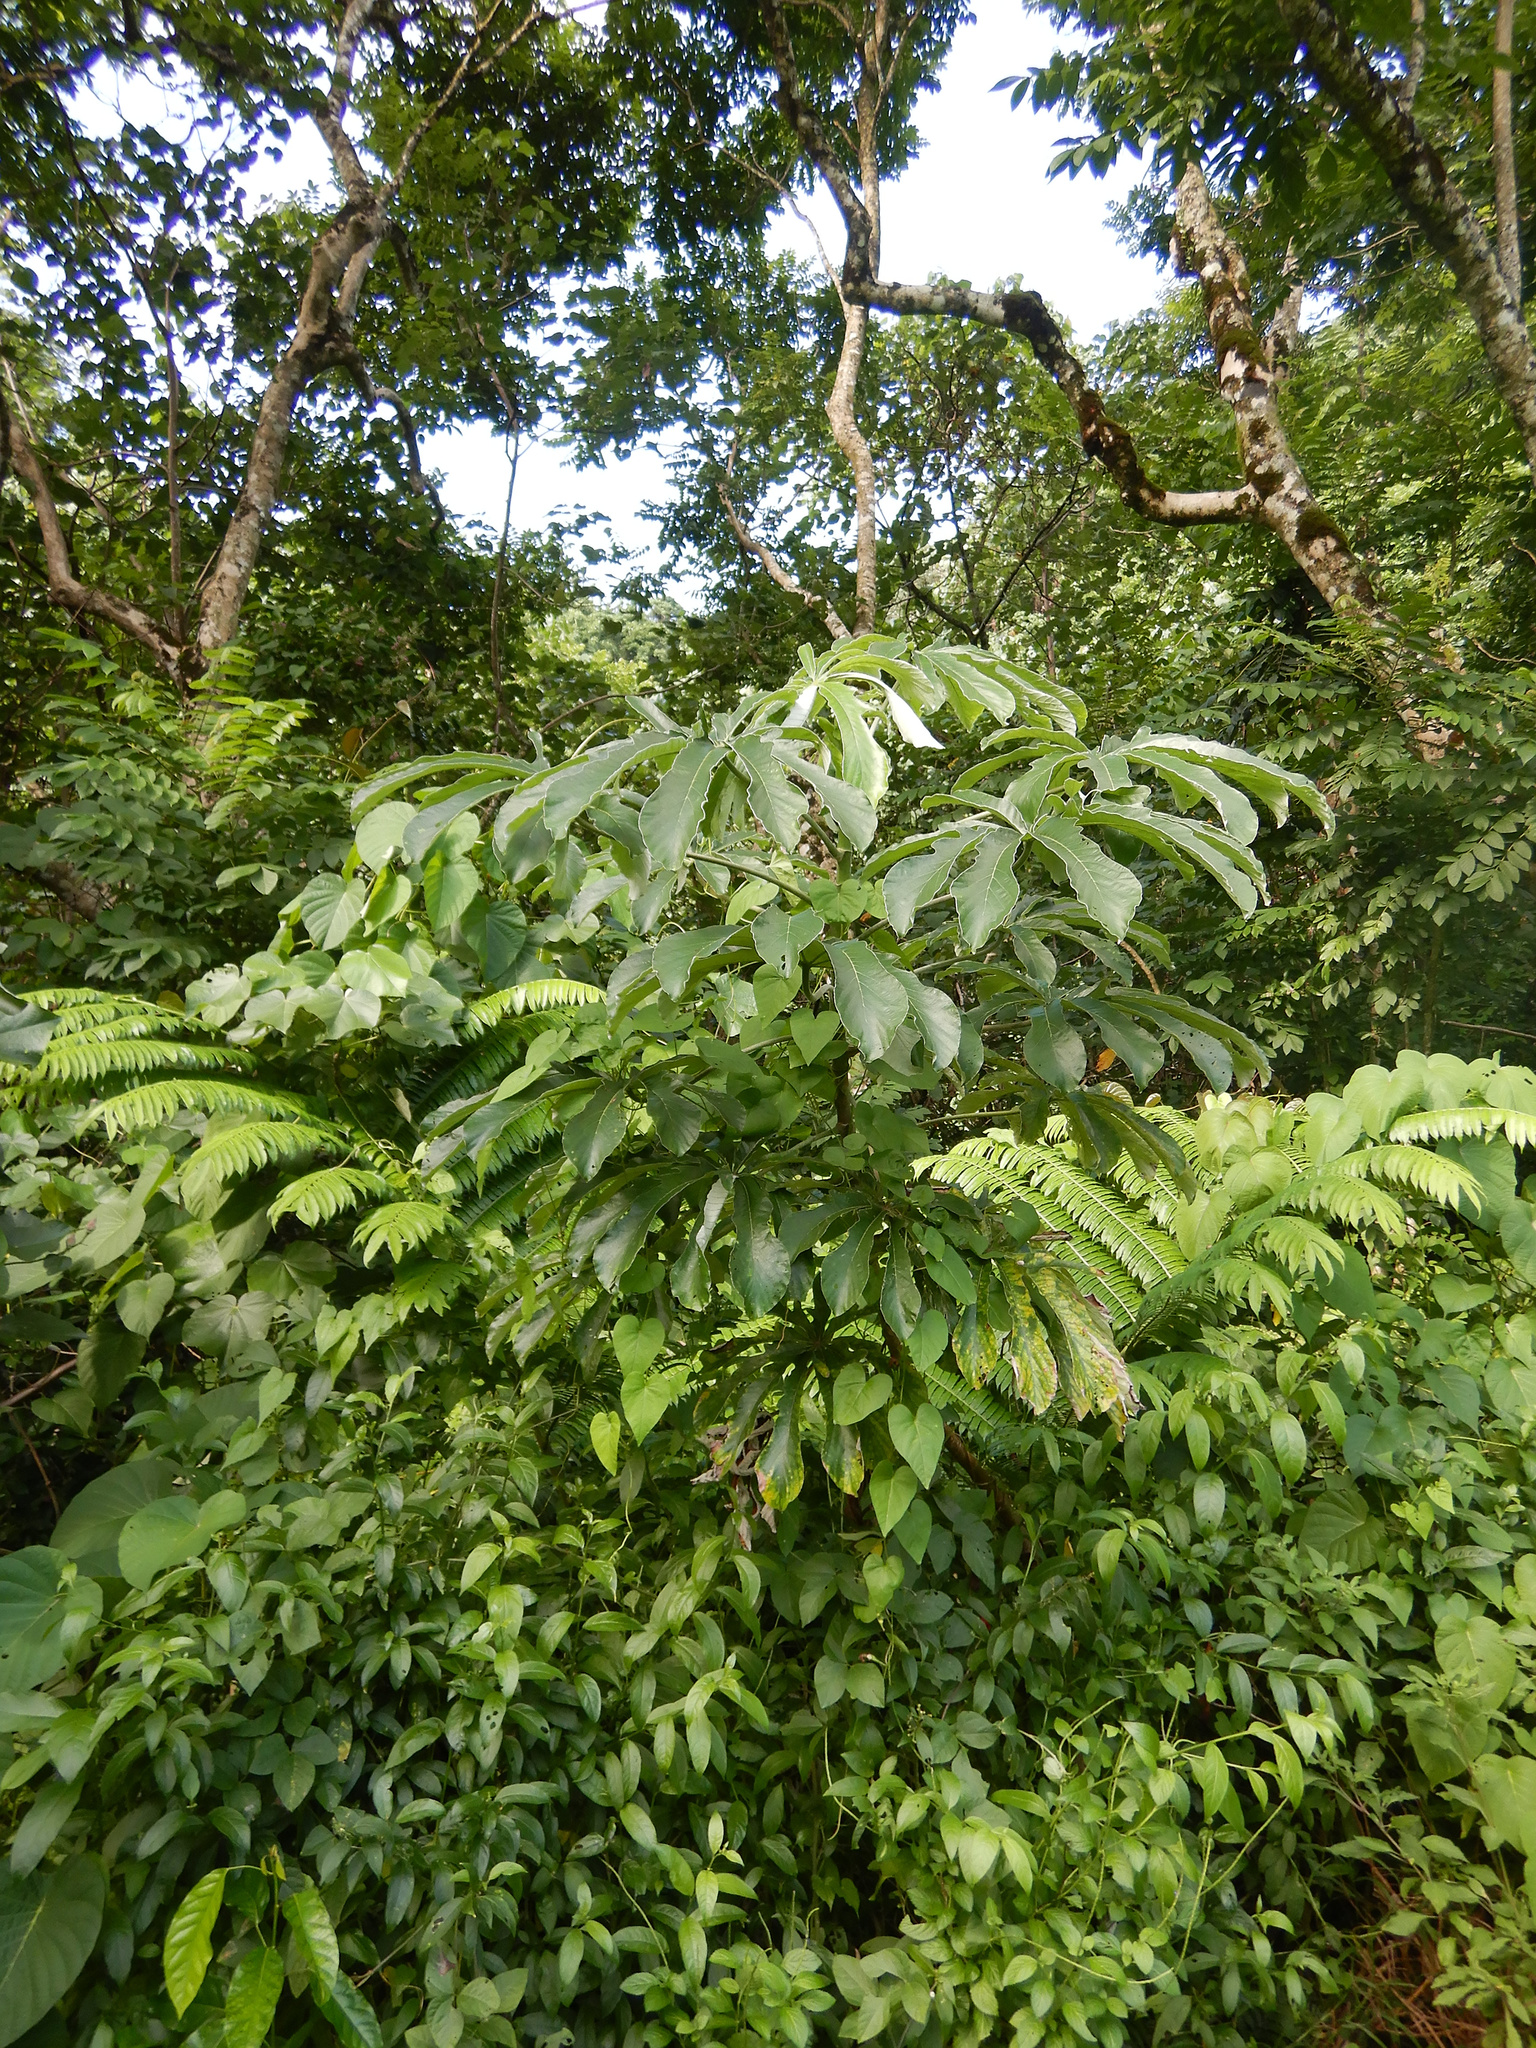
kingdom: Plantae
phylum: Tracheophyta
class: Magnoliopsida
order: Rosales
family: Urticaceae
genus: Cecropia
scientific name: Cecropia pachystachya
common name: Ambay pumpwood
